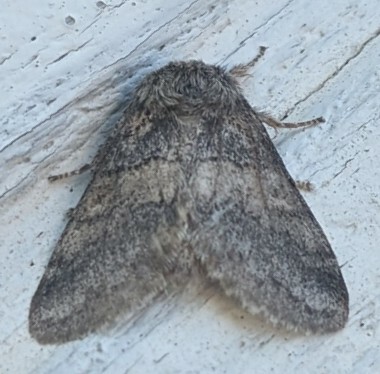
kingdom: Animalia
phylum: Arthropoda
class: Insecta
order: Lepidoptera
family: Notodontidae
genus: Gluphisia
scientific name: Gluphisia septentrionis
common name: Common gluphisia
